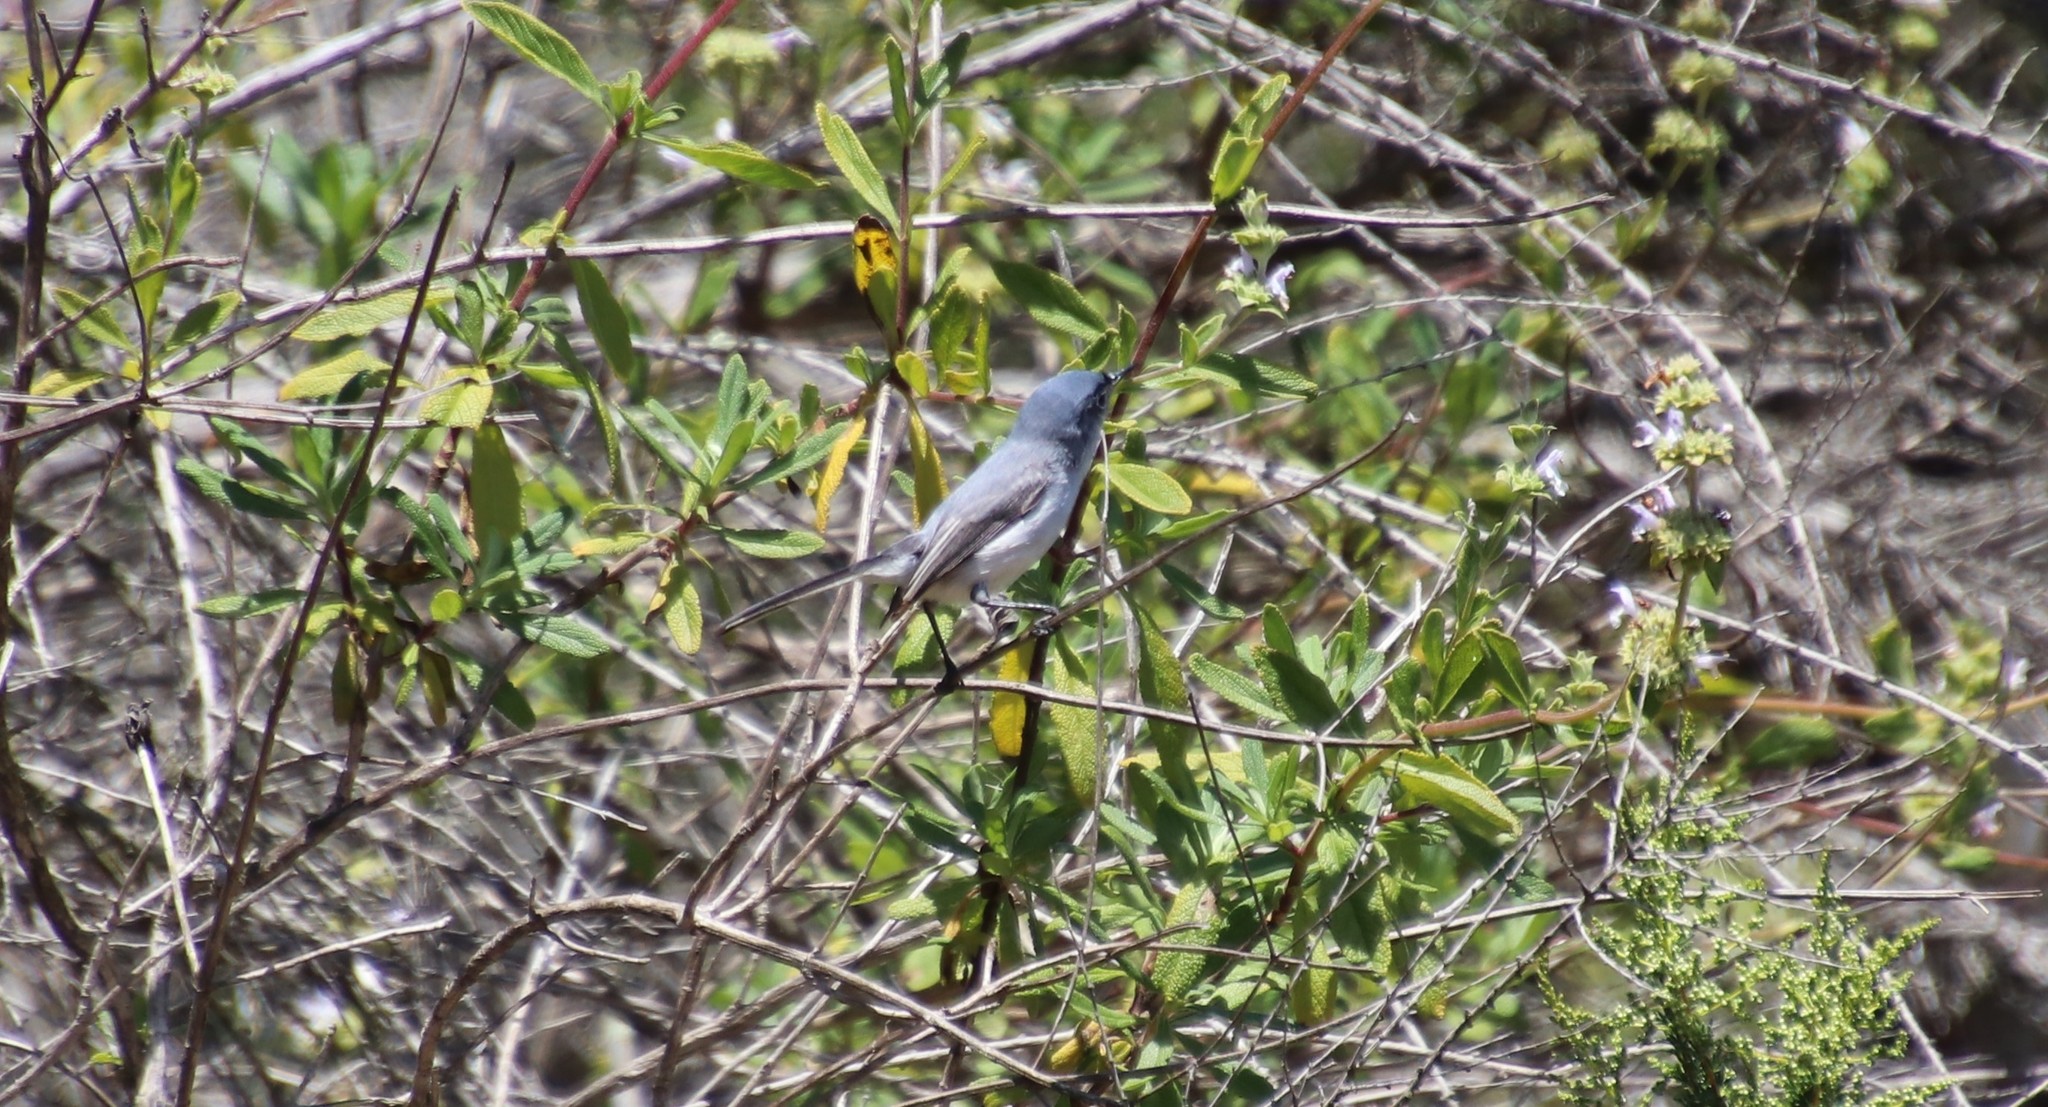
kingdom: Animalia
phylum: Chordata
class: Aves
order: Passeriformes
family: Polioptilidae
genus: Polioptila
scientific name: Polioptila caerulea
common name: Blue-gray gnatcatcher
